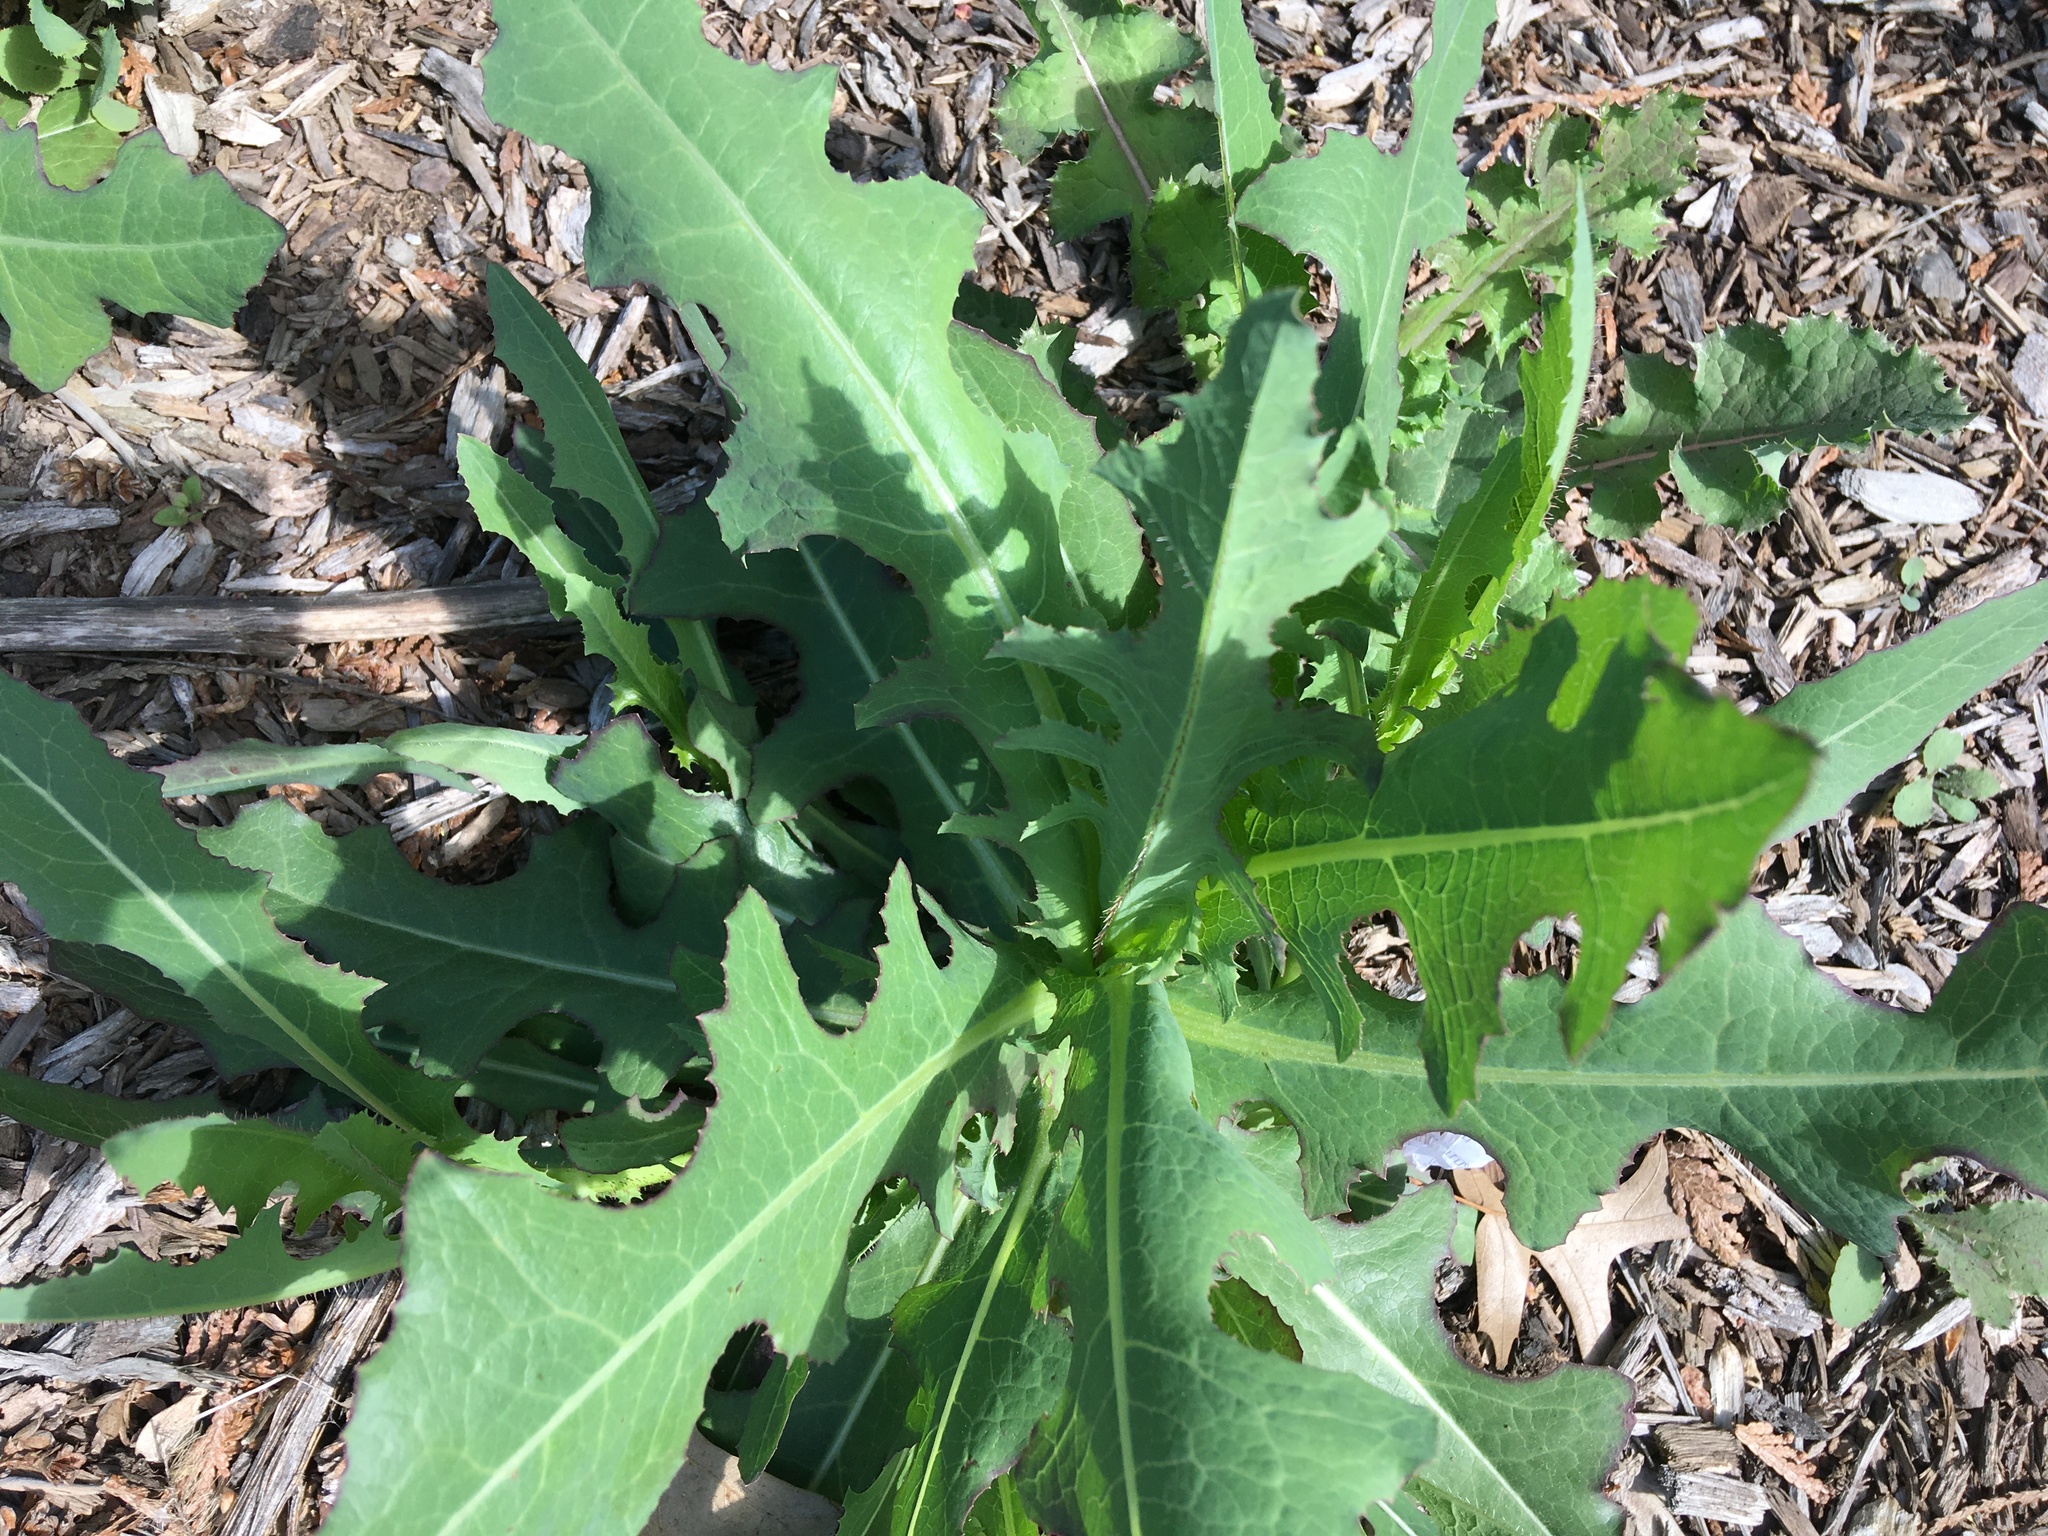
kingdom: Plantae
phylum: Tracheophyta
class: Magnoliopsida
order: Asterales
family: Asteraceae
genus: Lactuca
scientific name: Lactuca serriola
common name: Prickly lettuce
